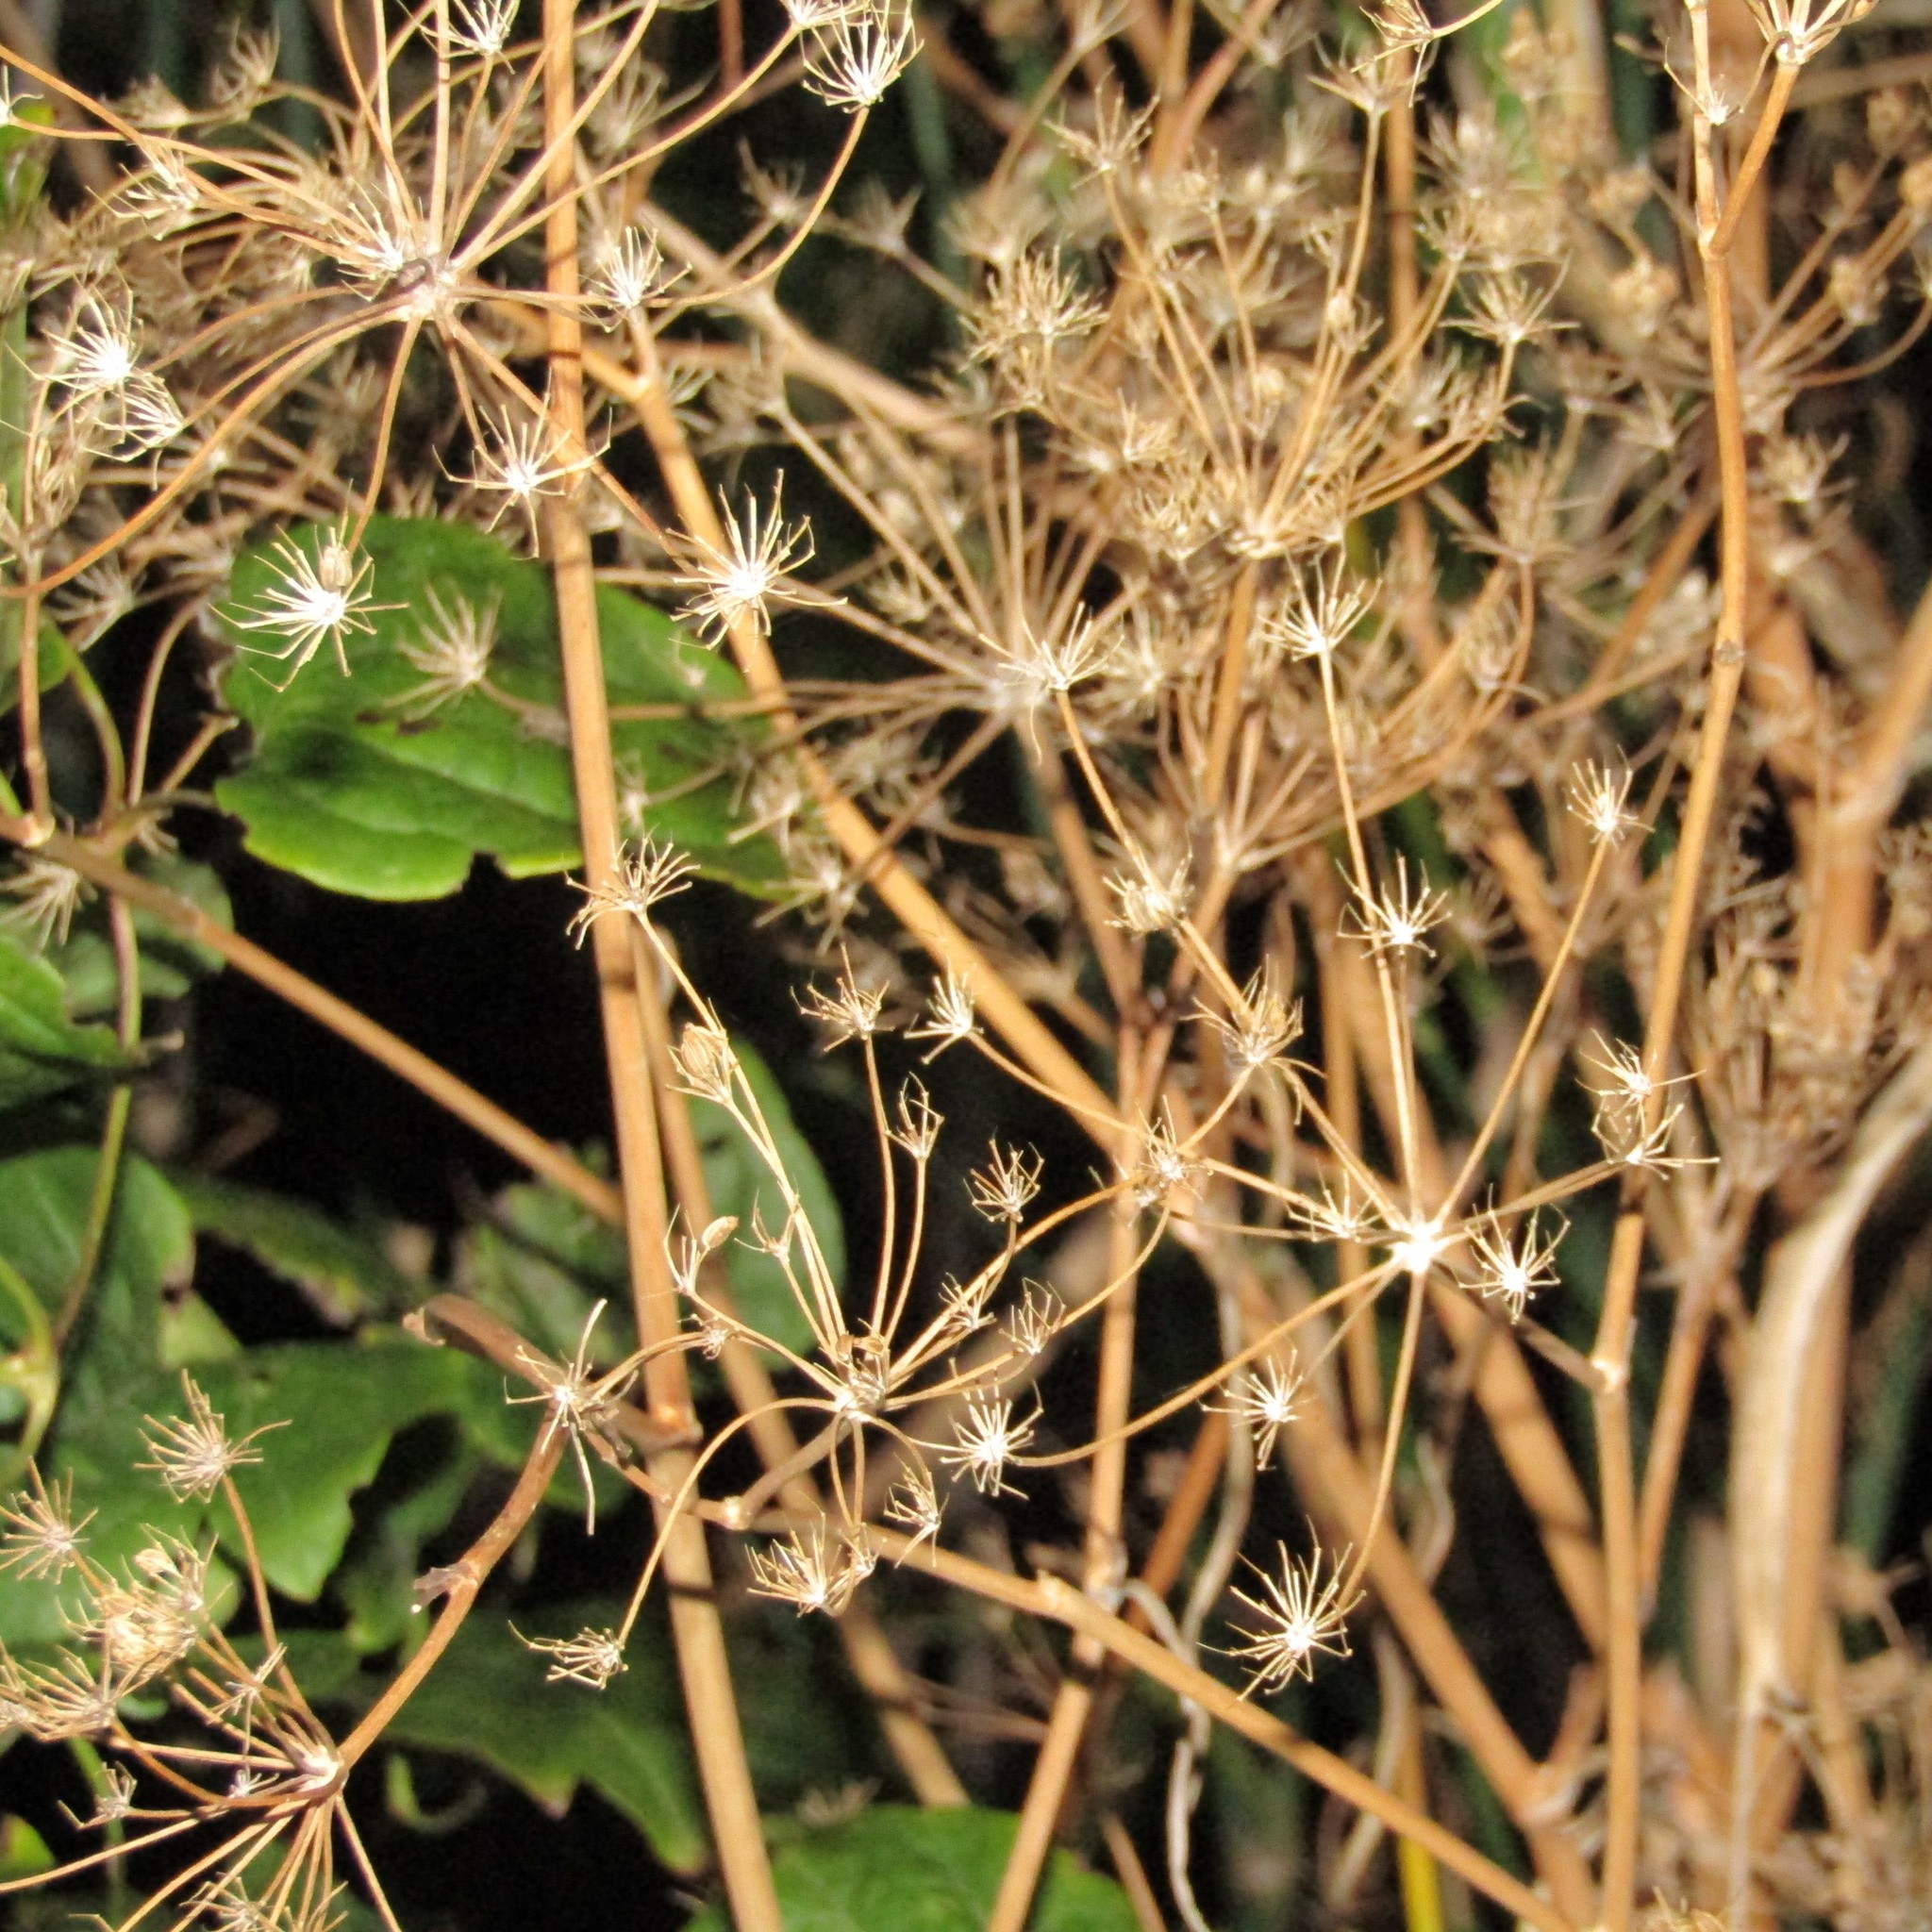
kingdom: Plantae
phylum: Tracheophyta
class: Magnoliopsida
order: Apiales
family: Apiaceae
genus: Foeniculum
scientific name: Foeniculum vulgare
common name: Fennel
